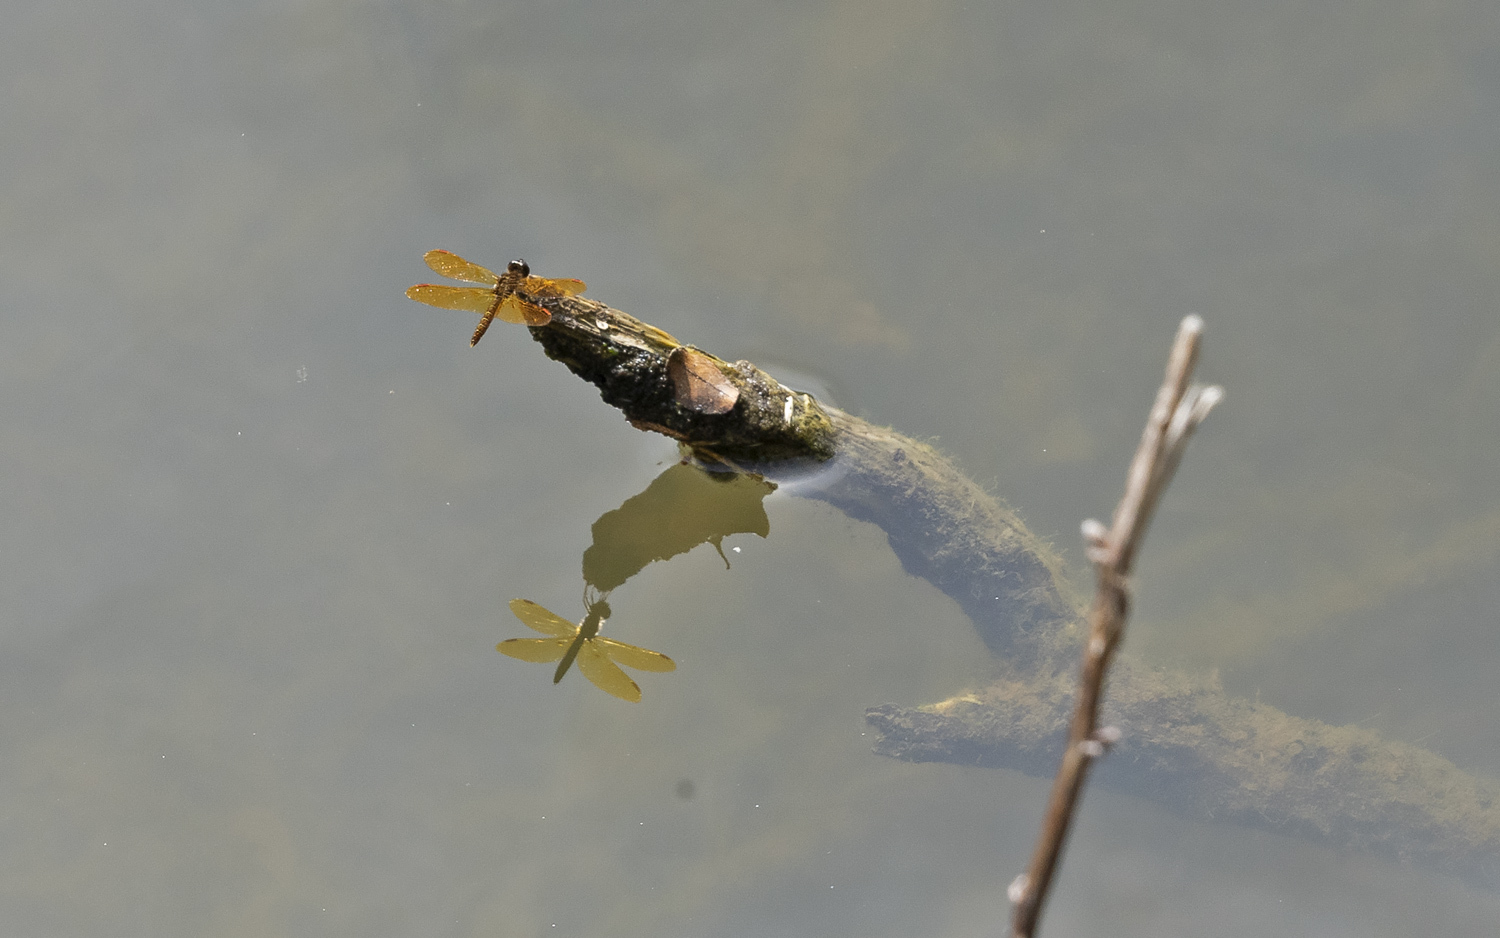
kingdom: Animalia
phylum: Arthropoda
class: Insecta
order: Odonata
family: Libellulidae
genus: Perithemis
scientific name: Perithemis tenera
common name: Eastern amberwing
